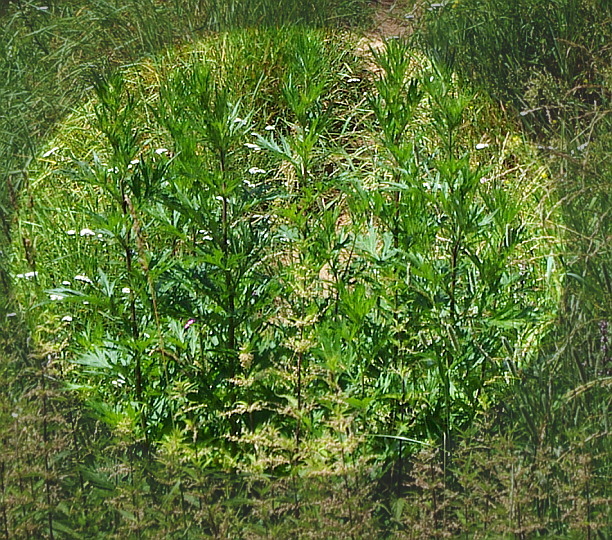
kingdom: Plantae
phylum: Tracheophyta
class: Magnoliopsida
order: Asterales
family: Asteraceae
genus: Artemisia
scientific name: Artemisia vulgaris
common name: Mugwort
